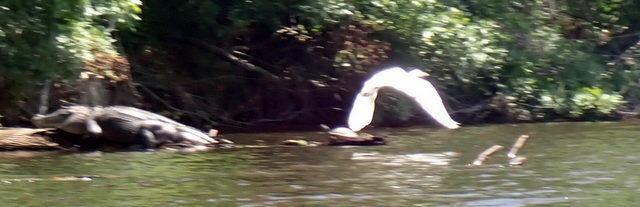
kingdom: Animalia
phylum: Chordata
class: Aves
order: Pelecaniformes
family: Ardeidae
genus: Ardea
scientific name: Ardea alba
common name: Great egret
